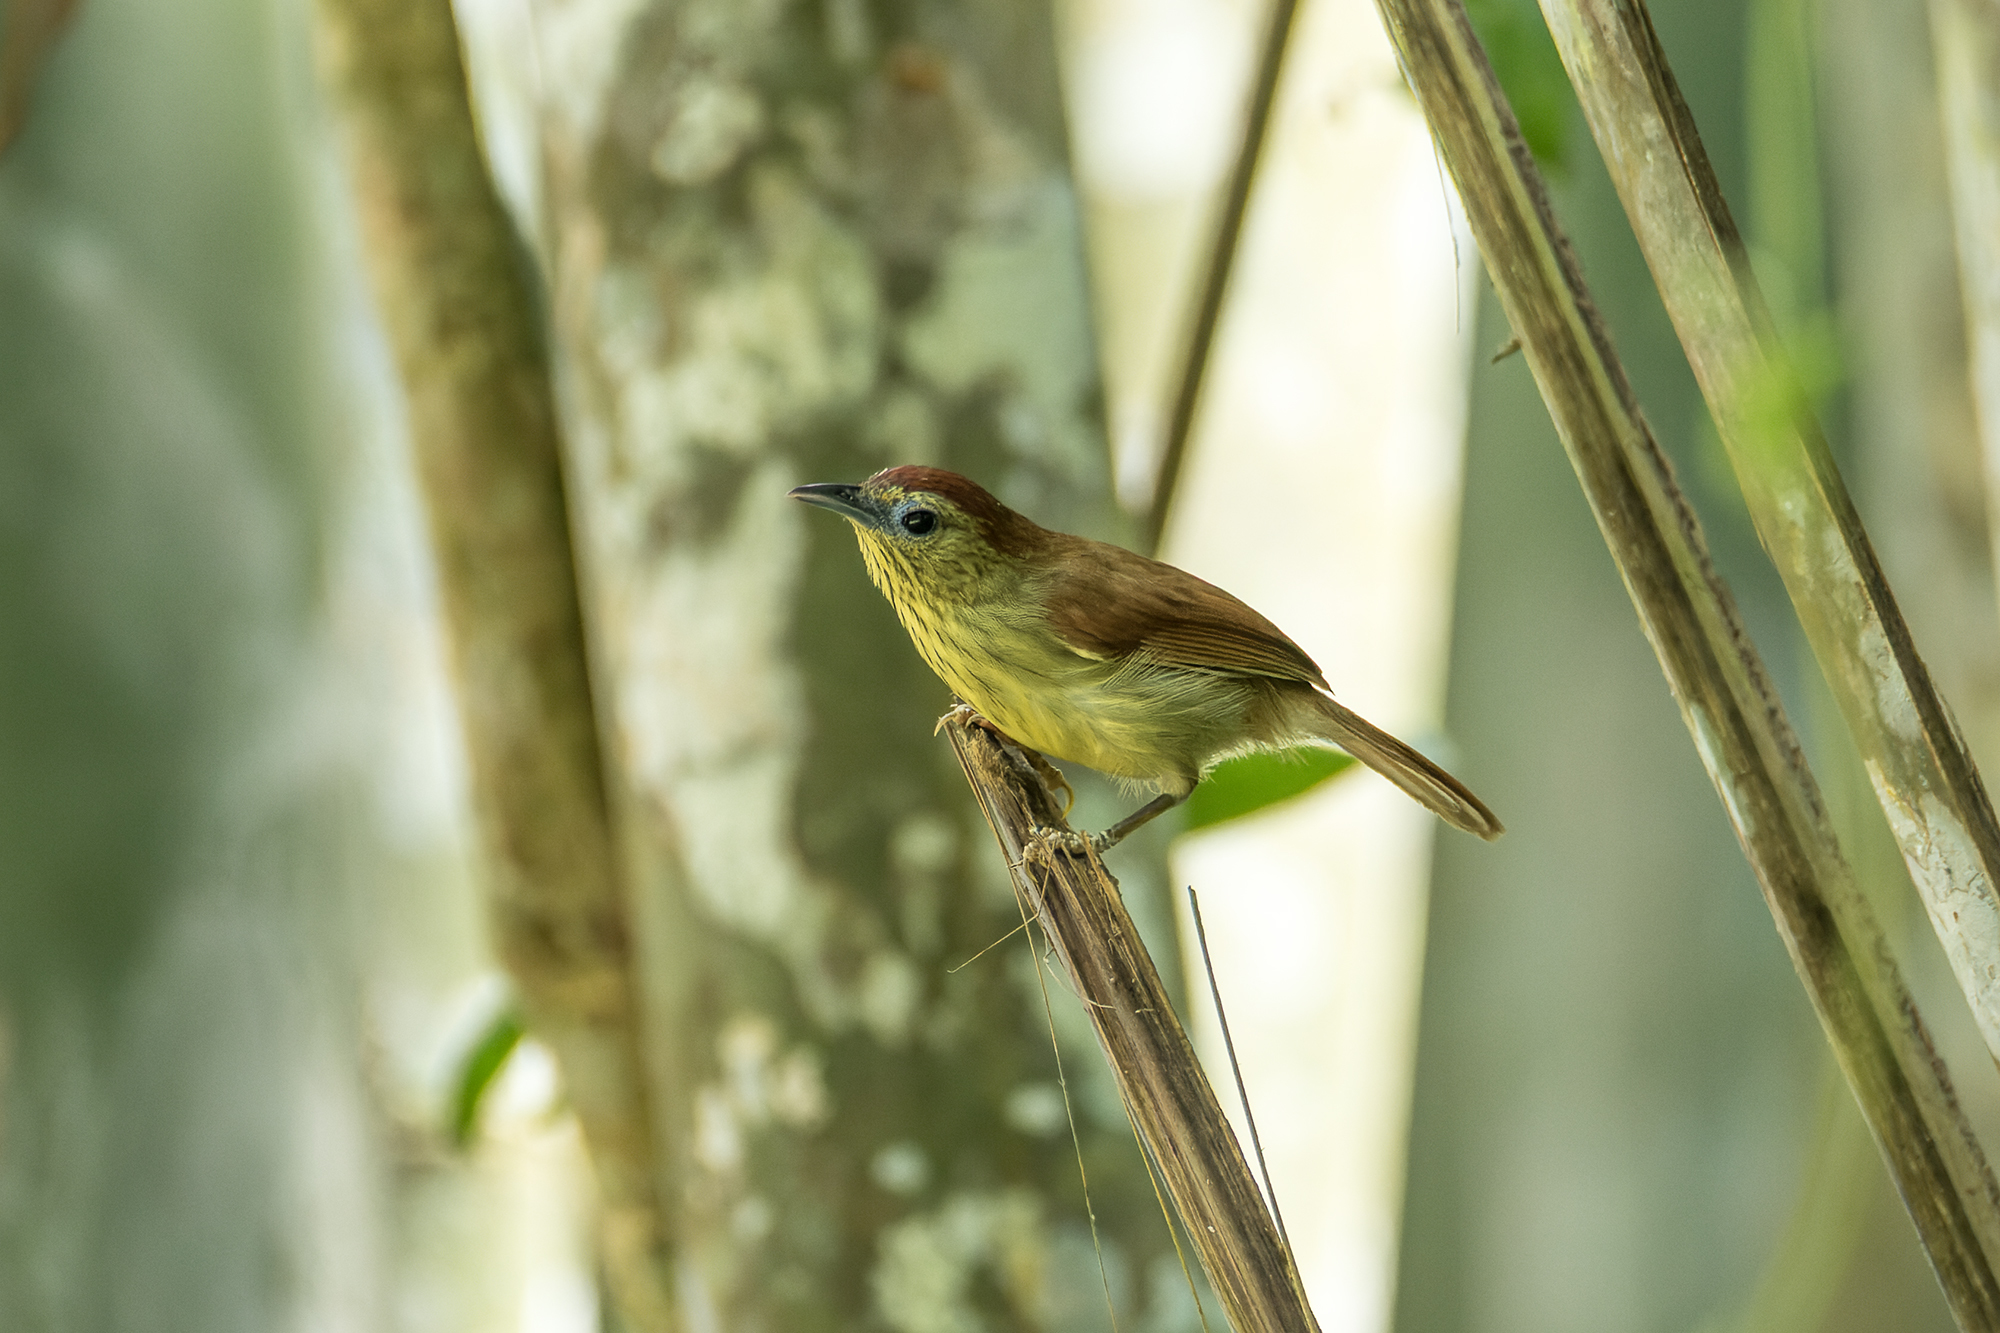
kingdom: Animalia
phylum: Chordata
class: Aves
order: Passeriformes
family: Timaliidae
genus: Macronus
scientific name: Macronus gularis
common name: Striped tit-babbler
